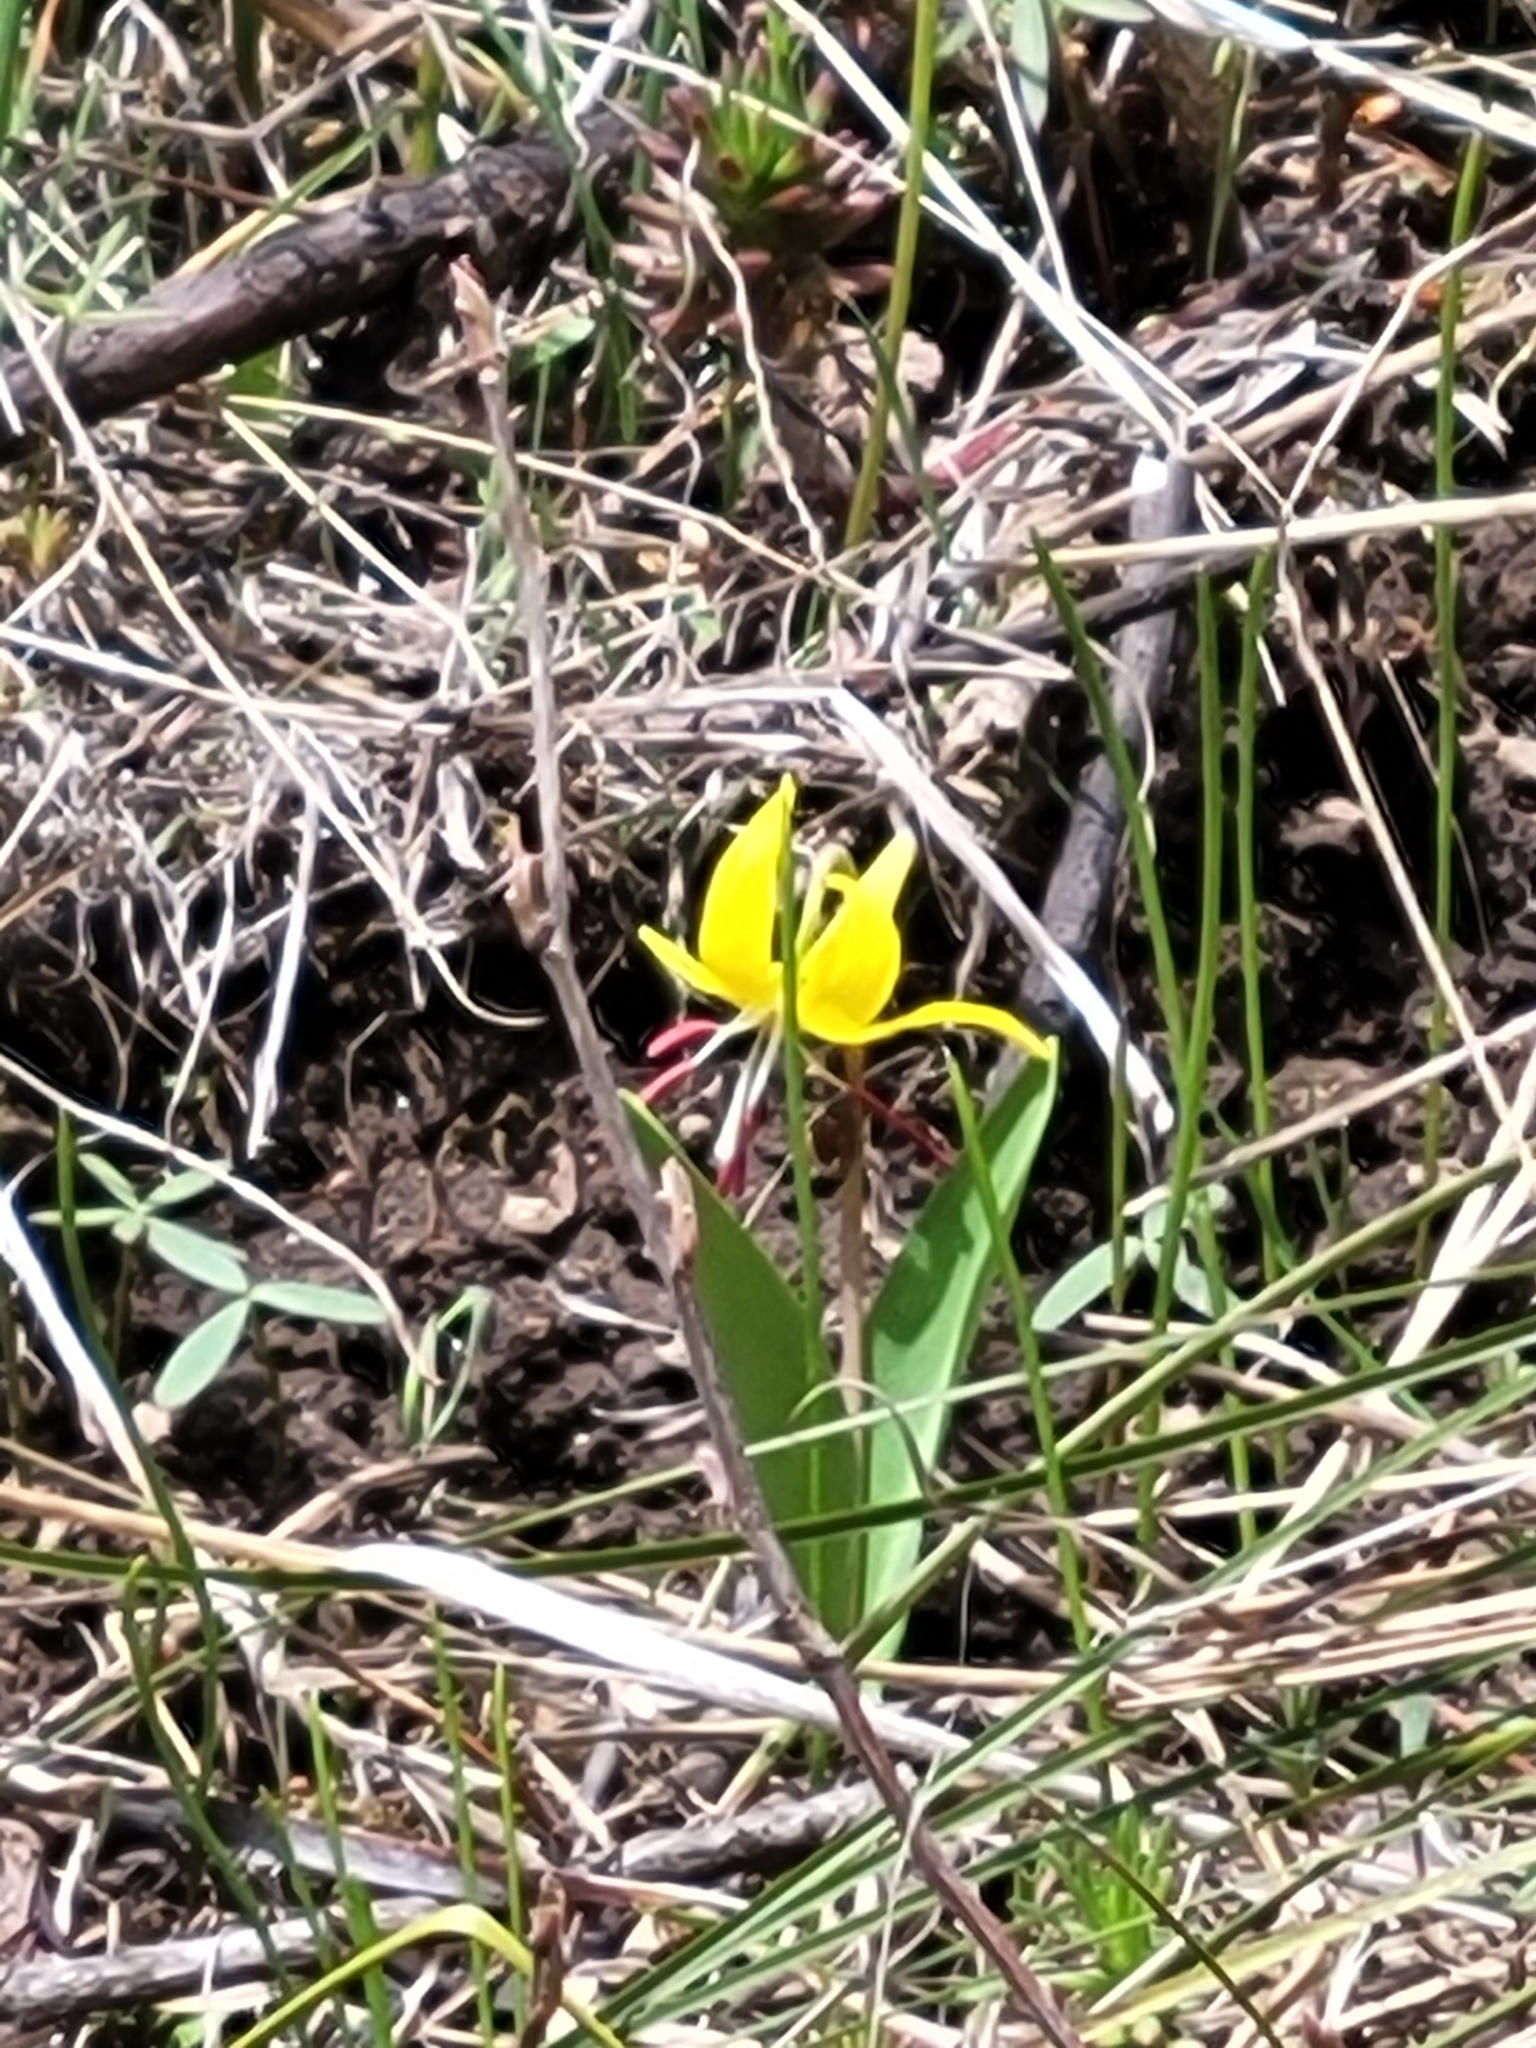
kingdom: Plantae
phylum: Tracheophyta
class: Liliopsida
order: Liliales
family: Liliaceae
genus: Erythronium
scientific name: Erythronium grandiflorum
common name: Avalanche-lily
